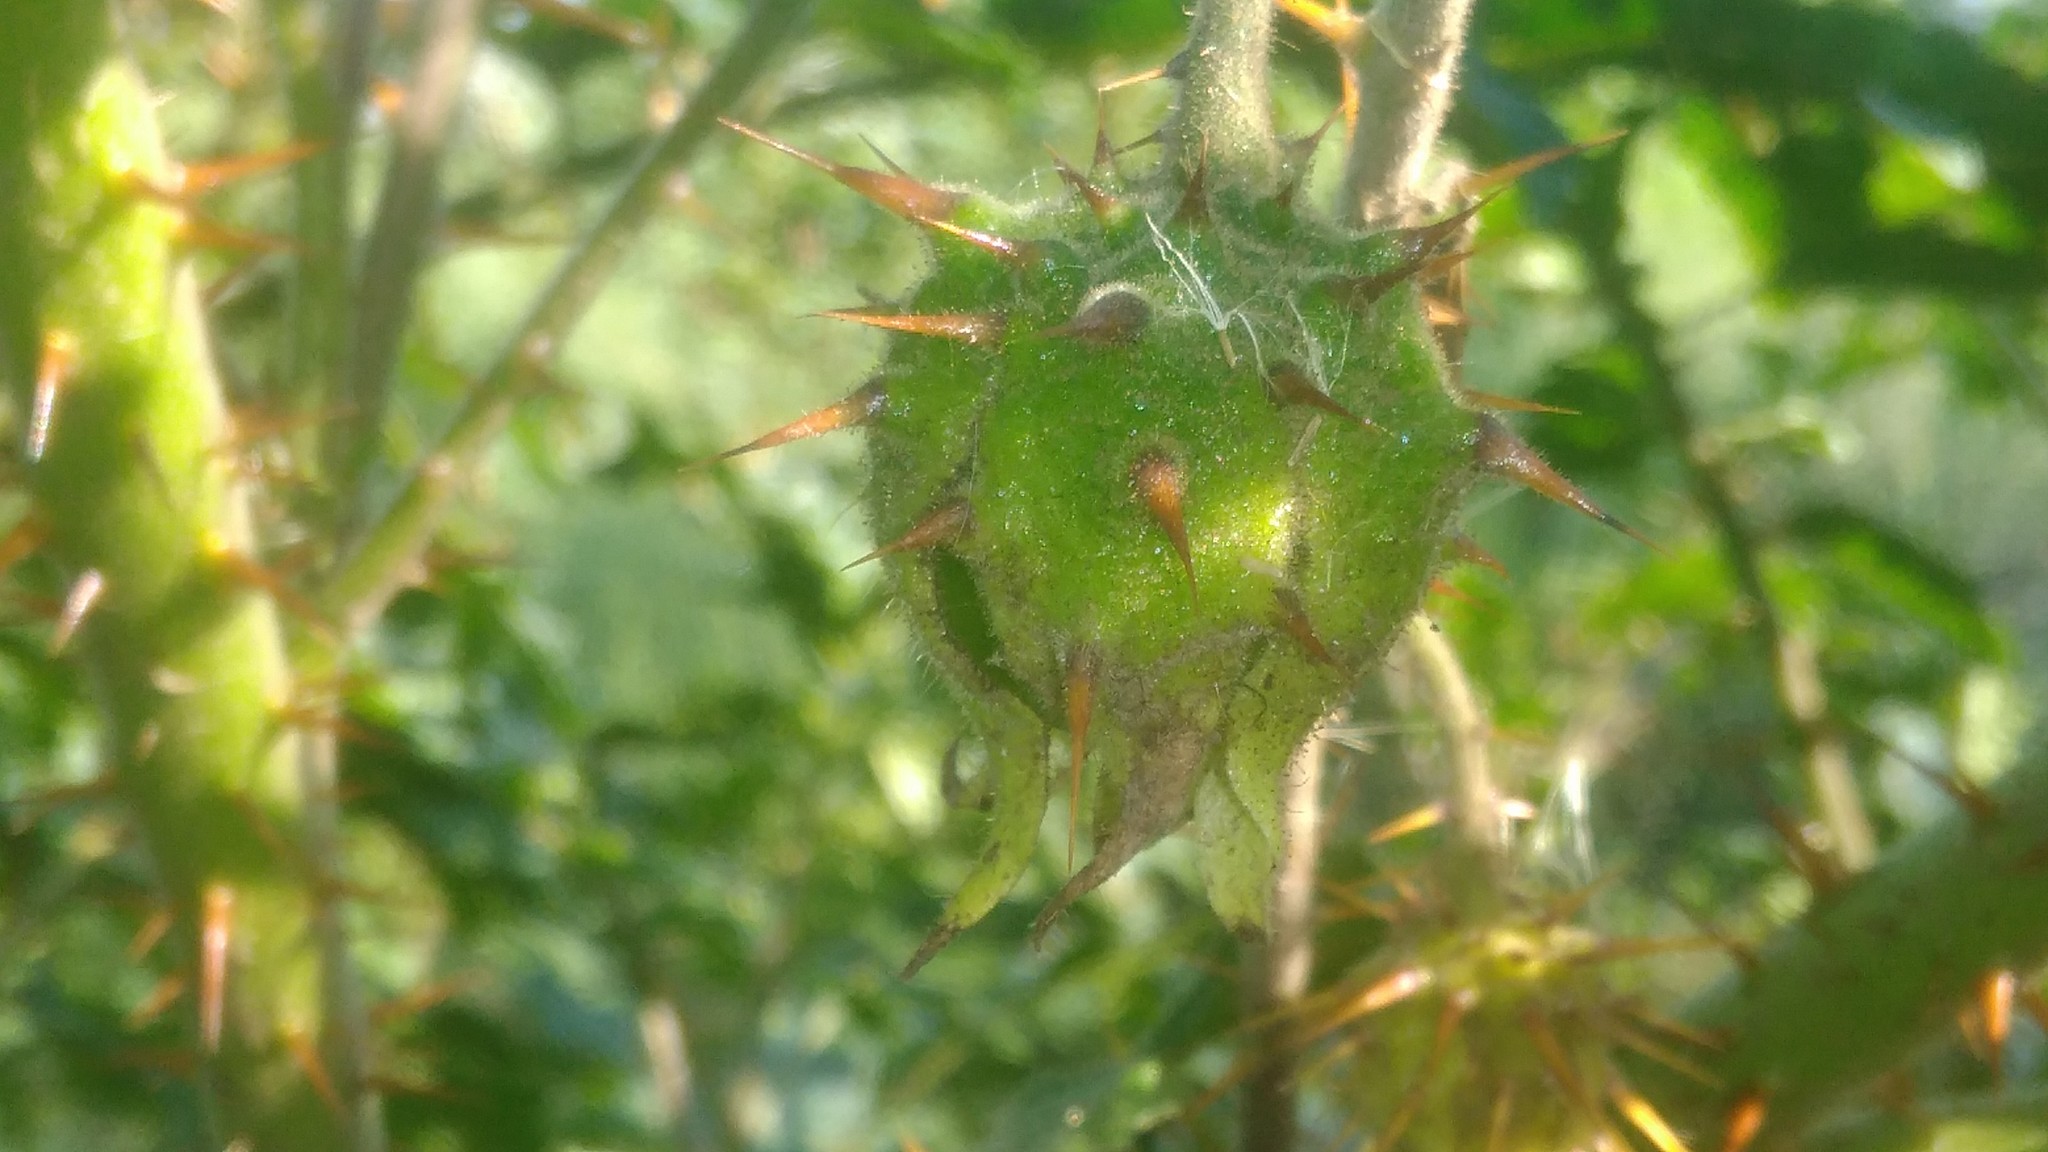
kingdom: Plantae
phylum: Tracheophyta
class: Magnoliopsida
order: Solanales
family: Solanaceae
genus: Solanum
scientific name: Solanum sisymbriifolium
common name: Red buffalo-bur
